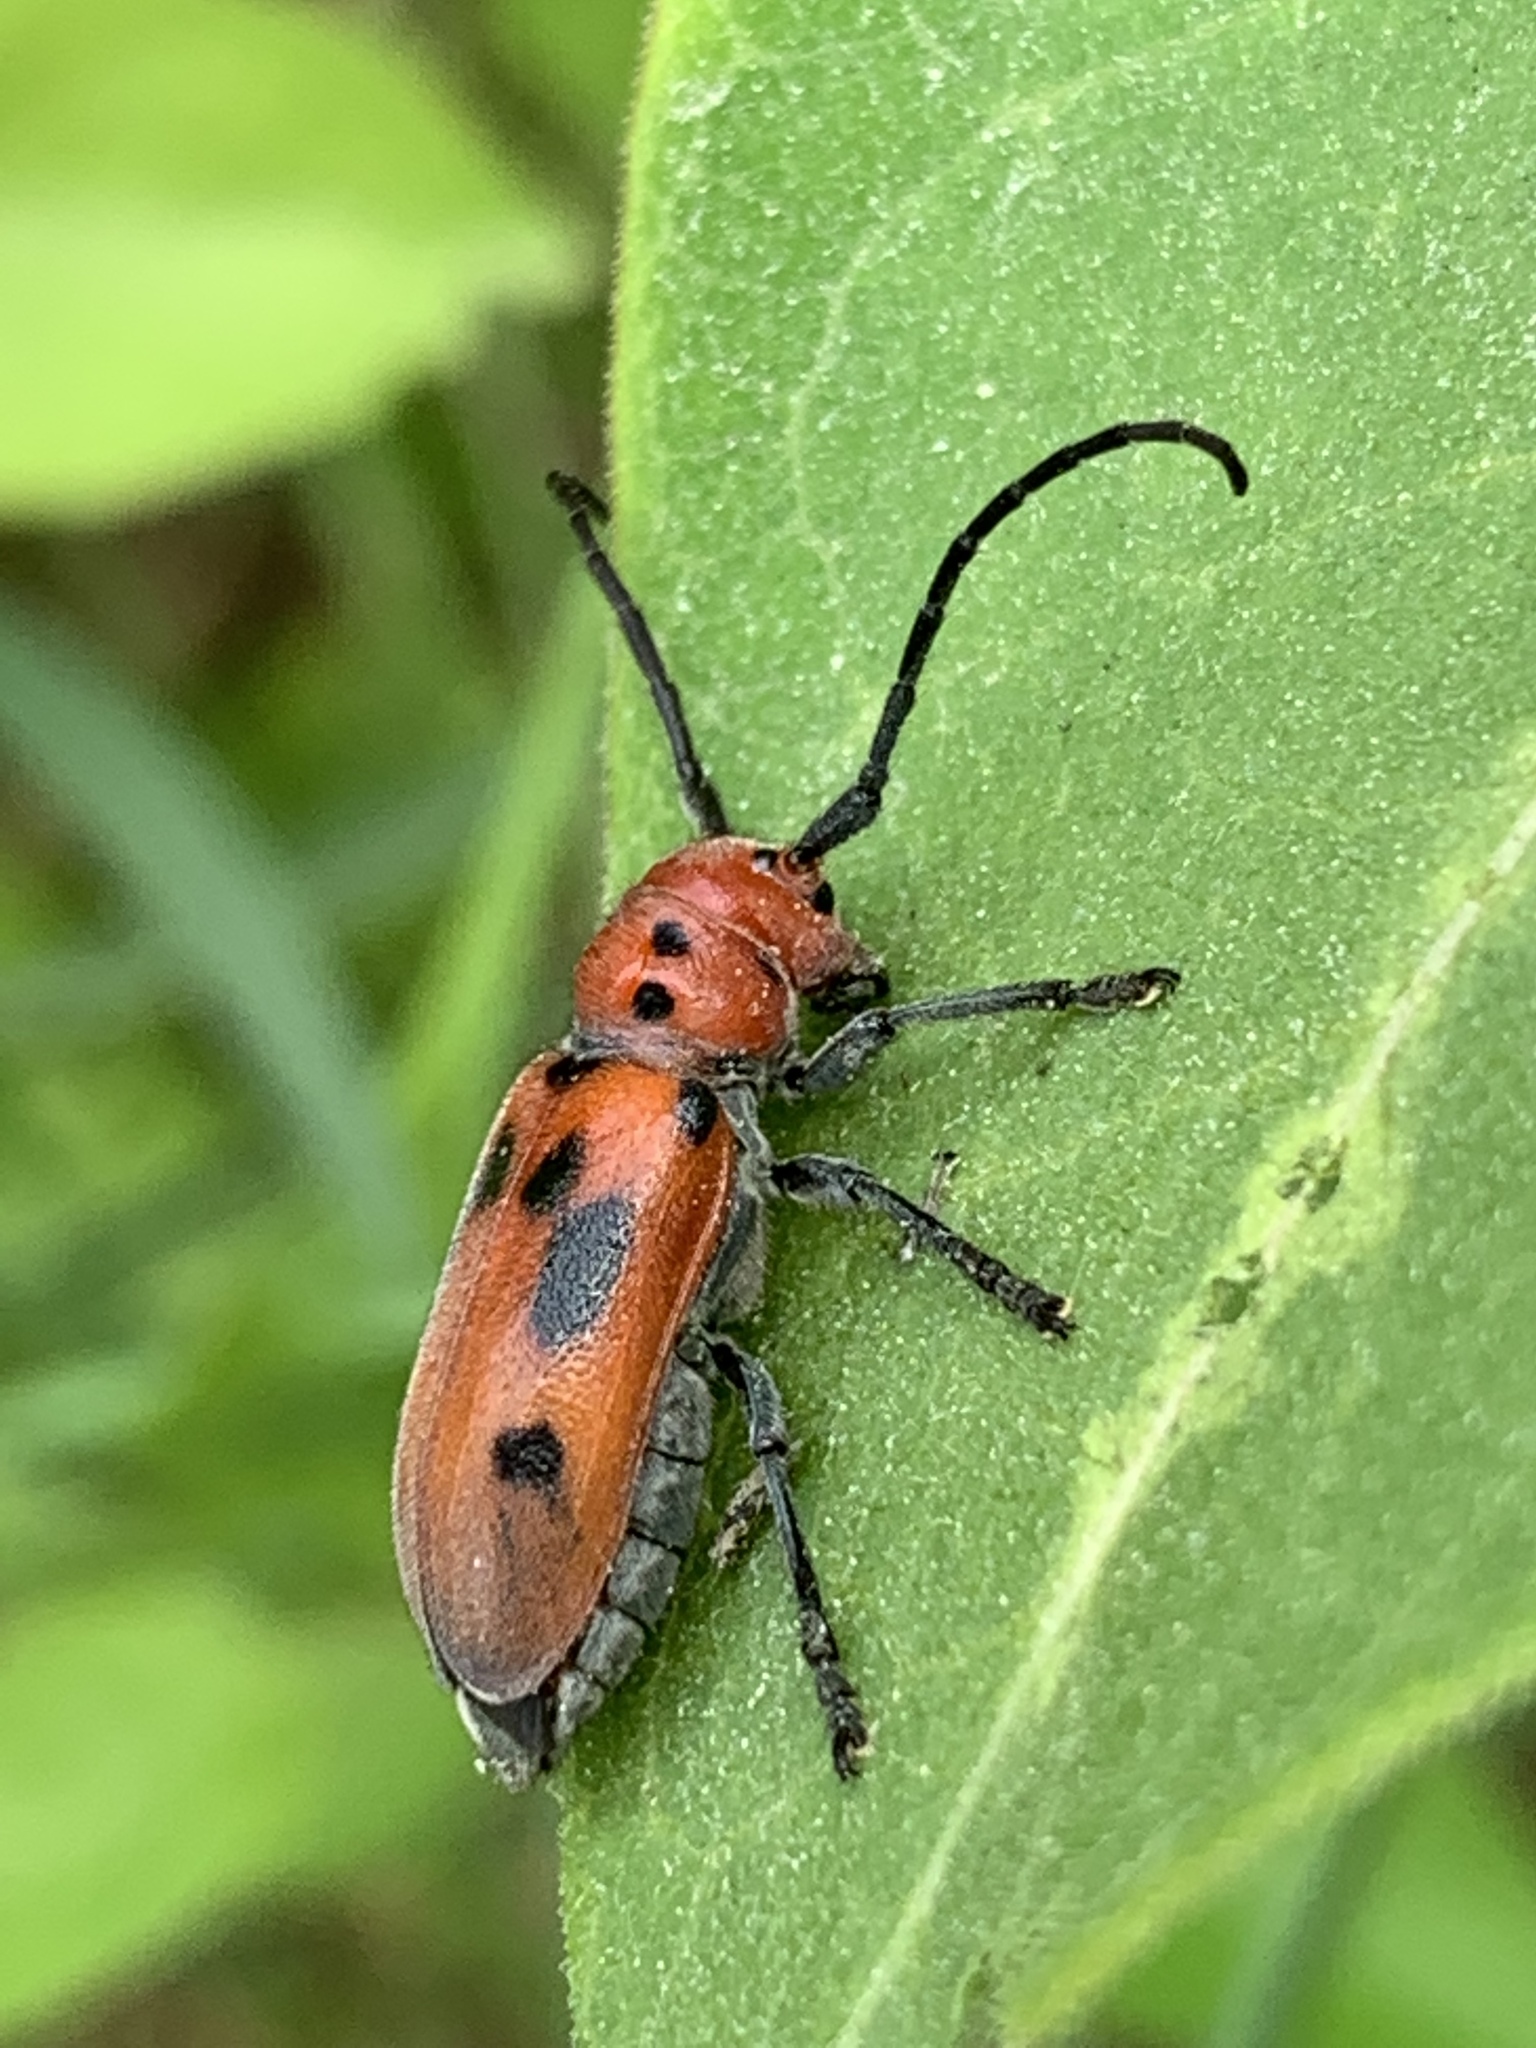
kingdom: Animalia
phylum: Arthropoda
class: Insecta
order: Coleoptera
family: Cerambycidae
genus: Tetraopes
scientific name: Tetraopes tetrophthalmus
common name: Red milkweed beetle
